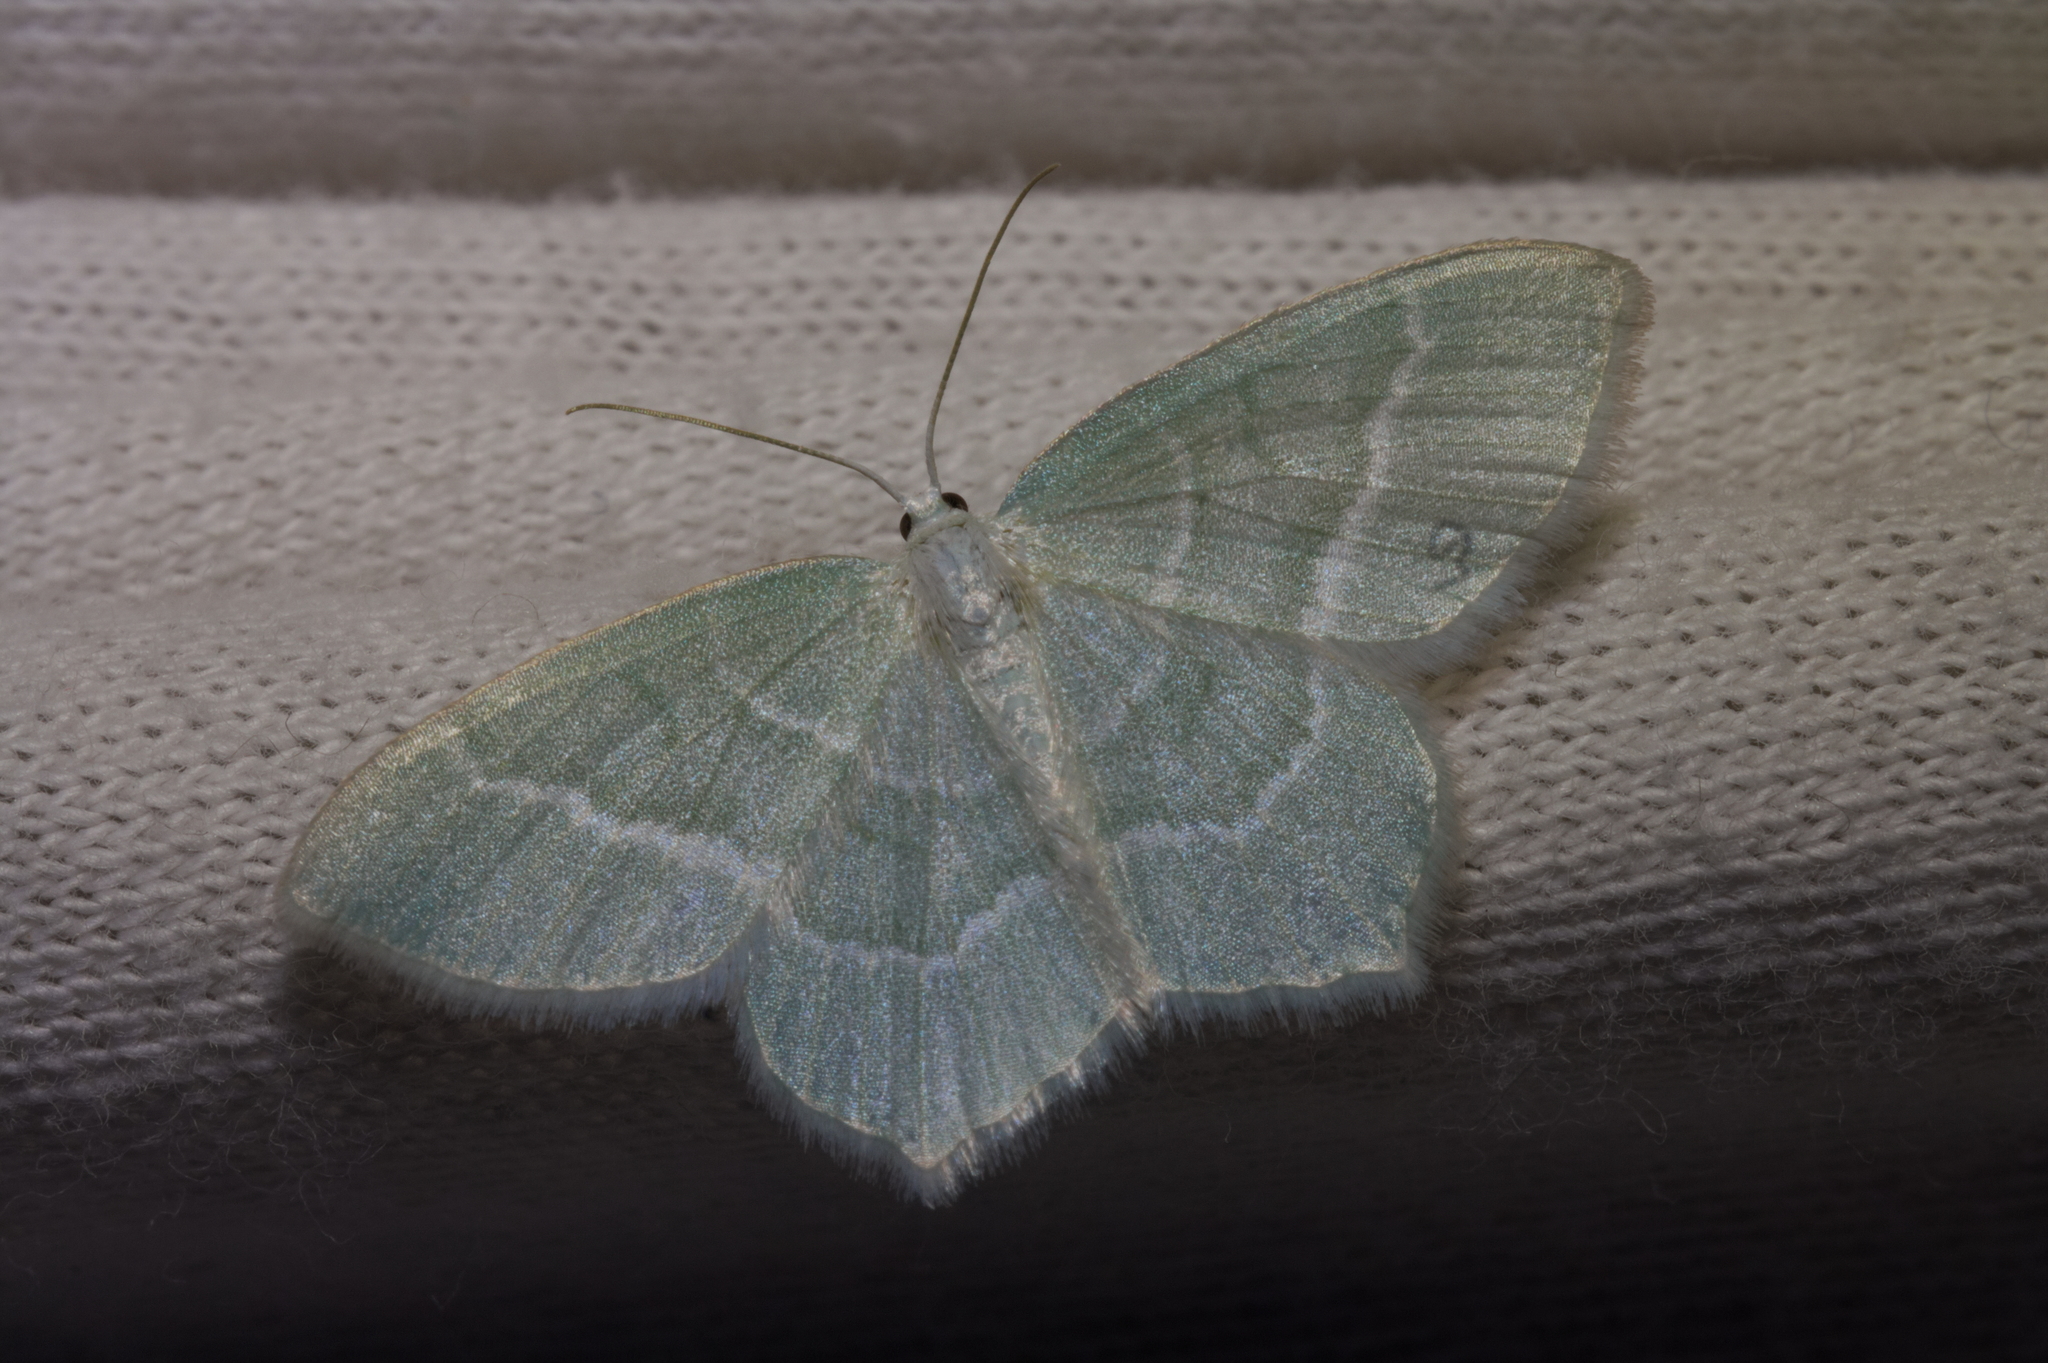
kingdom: Animalia
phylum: Arthropoda
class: Insecta
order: Lepidoptera
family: Geometridae
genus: Jodis
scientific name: Jodis lactearia
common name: Little emerald
